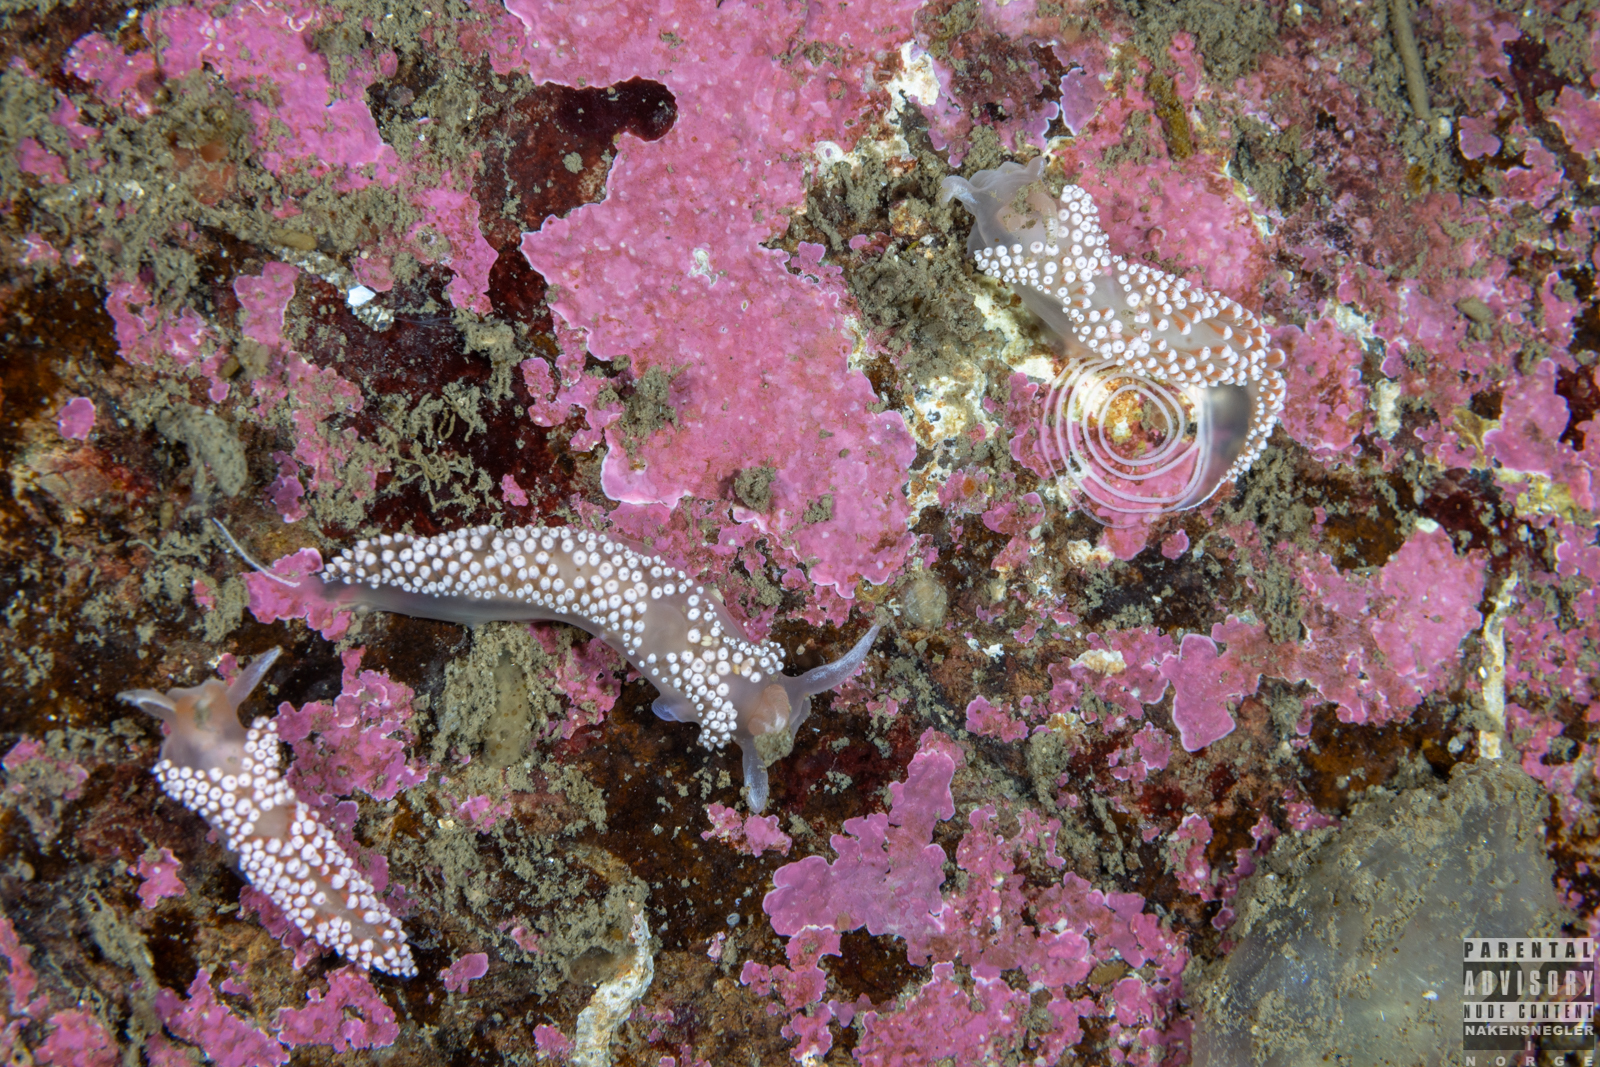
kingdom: Animalia
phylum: Mollusca
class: Gastropoda
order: Nudibranchia
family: Coryphellidae
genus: Coryphella
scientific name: Coryphella verrucosa
